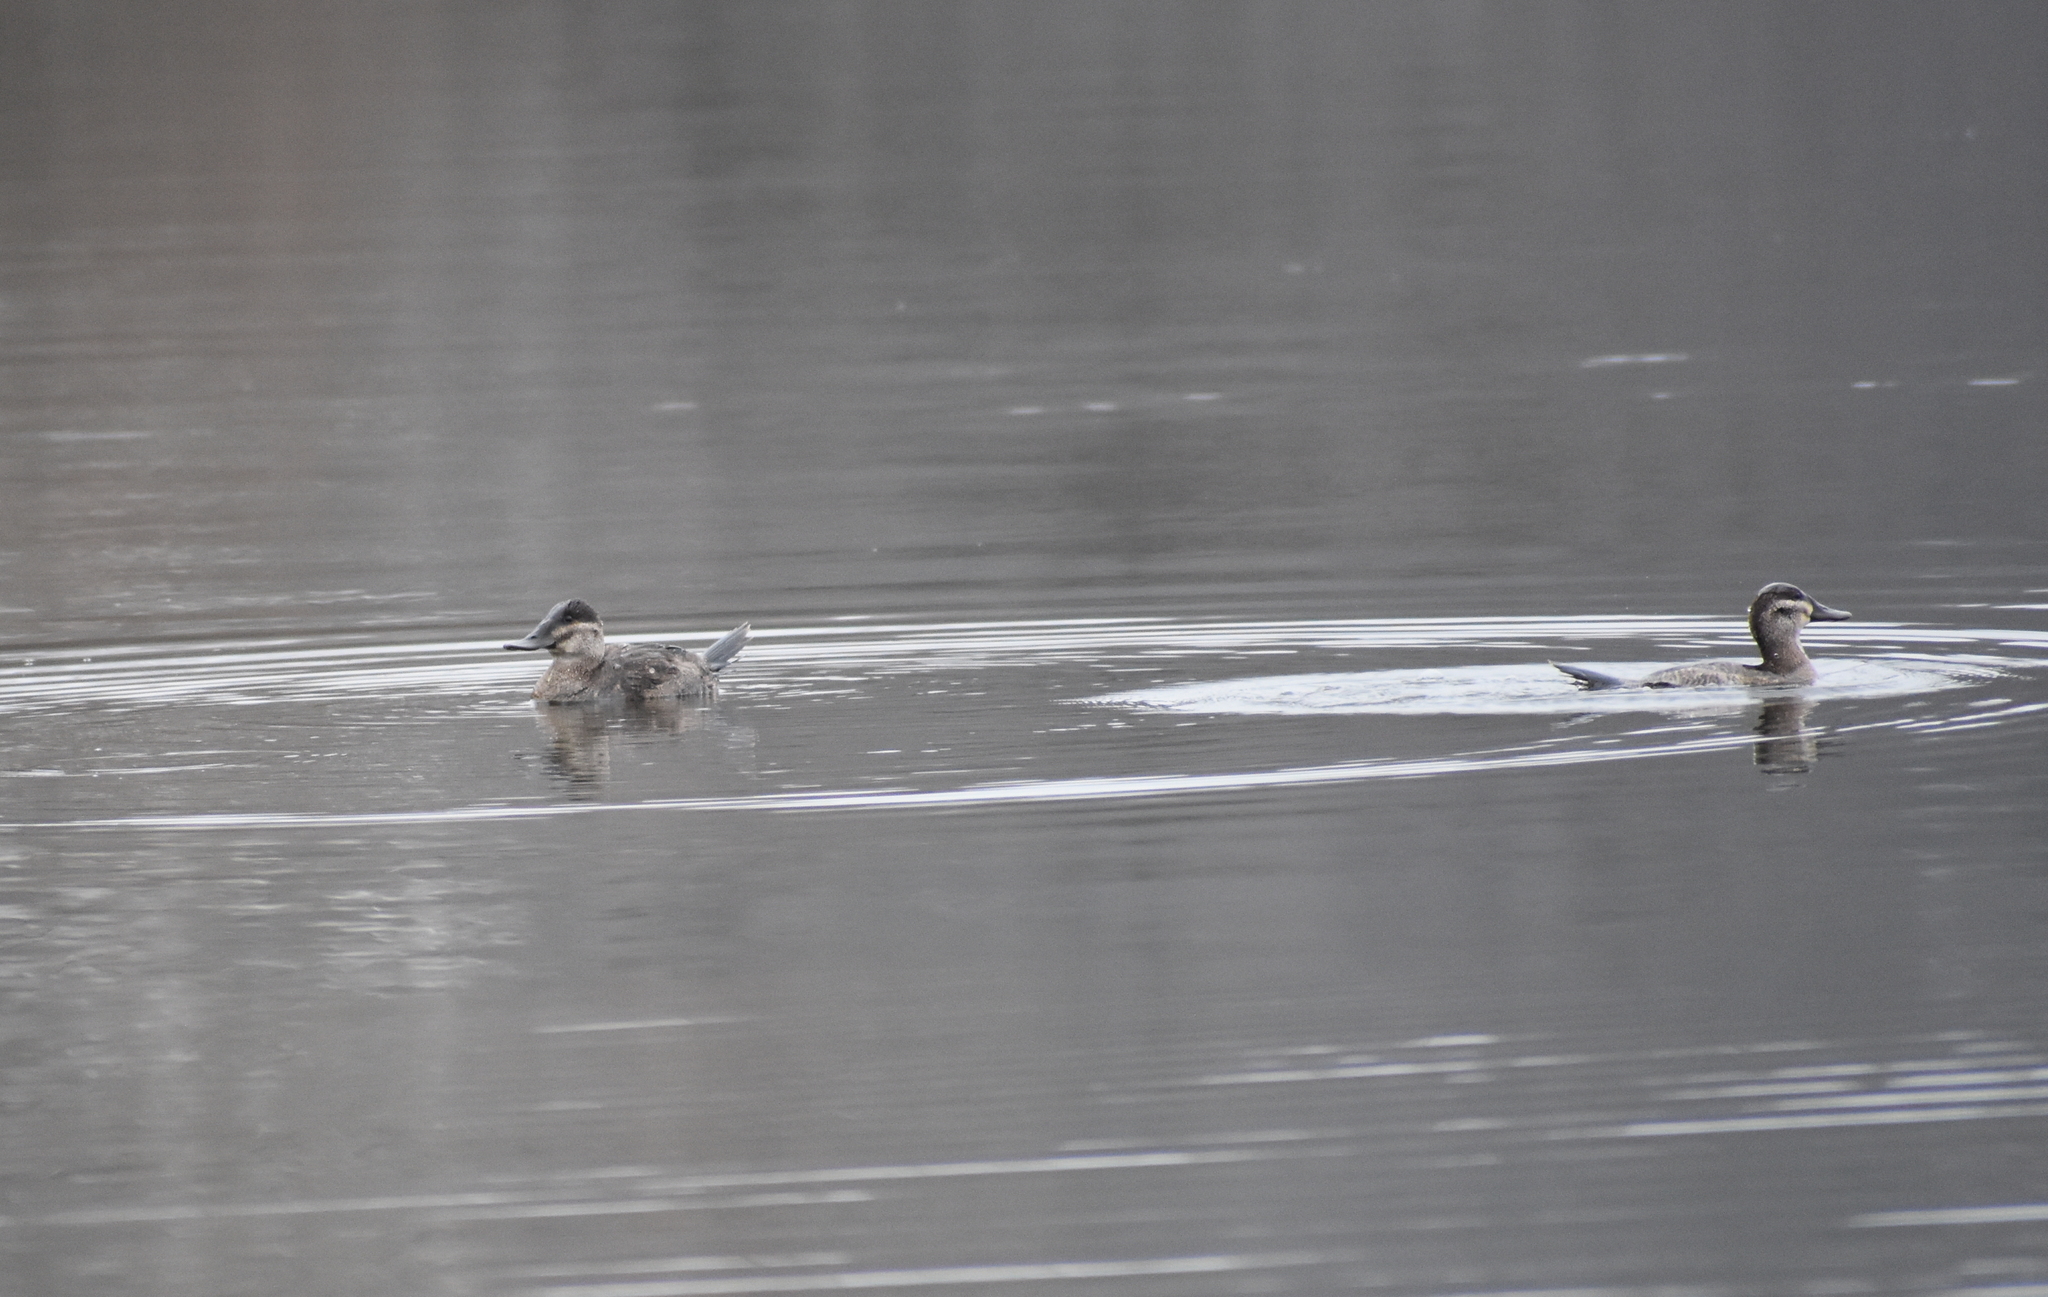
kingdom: Animalia
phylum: Chordata
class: Aves
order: Anseriformes
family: Anatidae
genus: Oxyura
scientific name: Oxyura jamaicensis
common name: Ruddy duck
